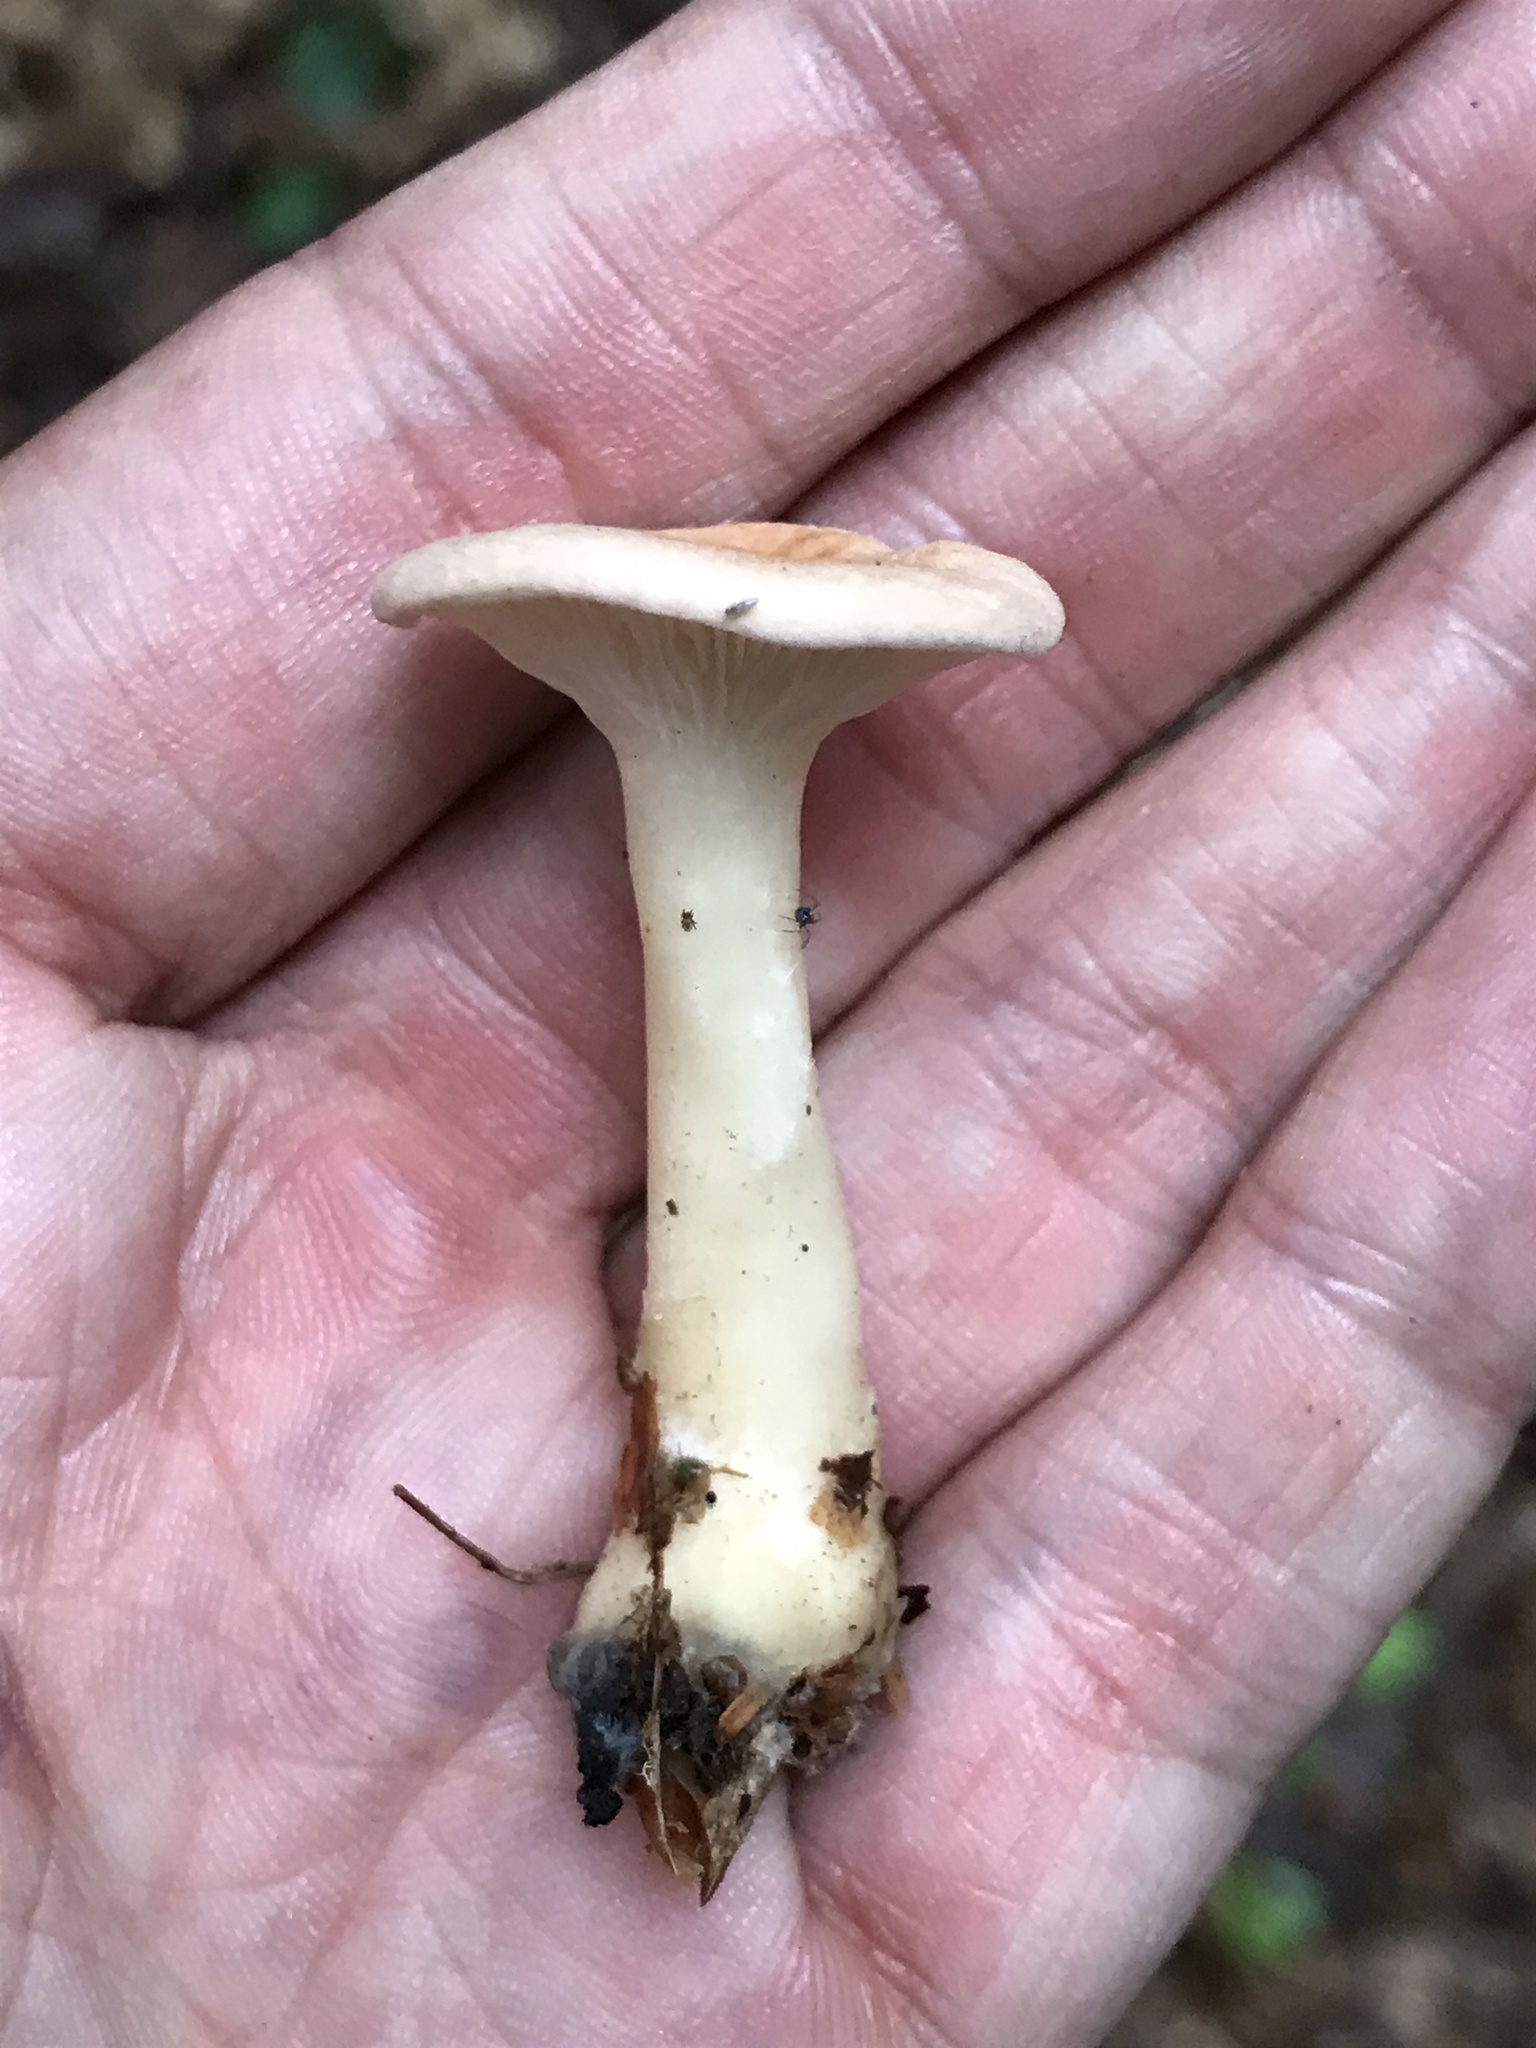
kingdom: Fungi
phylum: Basidiomycota
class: Agaricomycetes
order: Agaricales
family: Tricholomataceae
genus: Infundibulicybe
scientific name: Infundibulicybe gibba
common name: Common funnel
